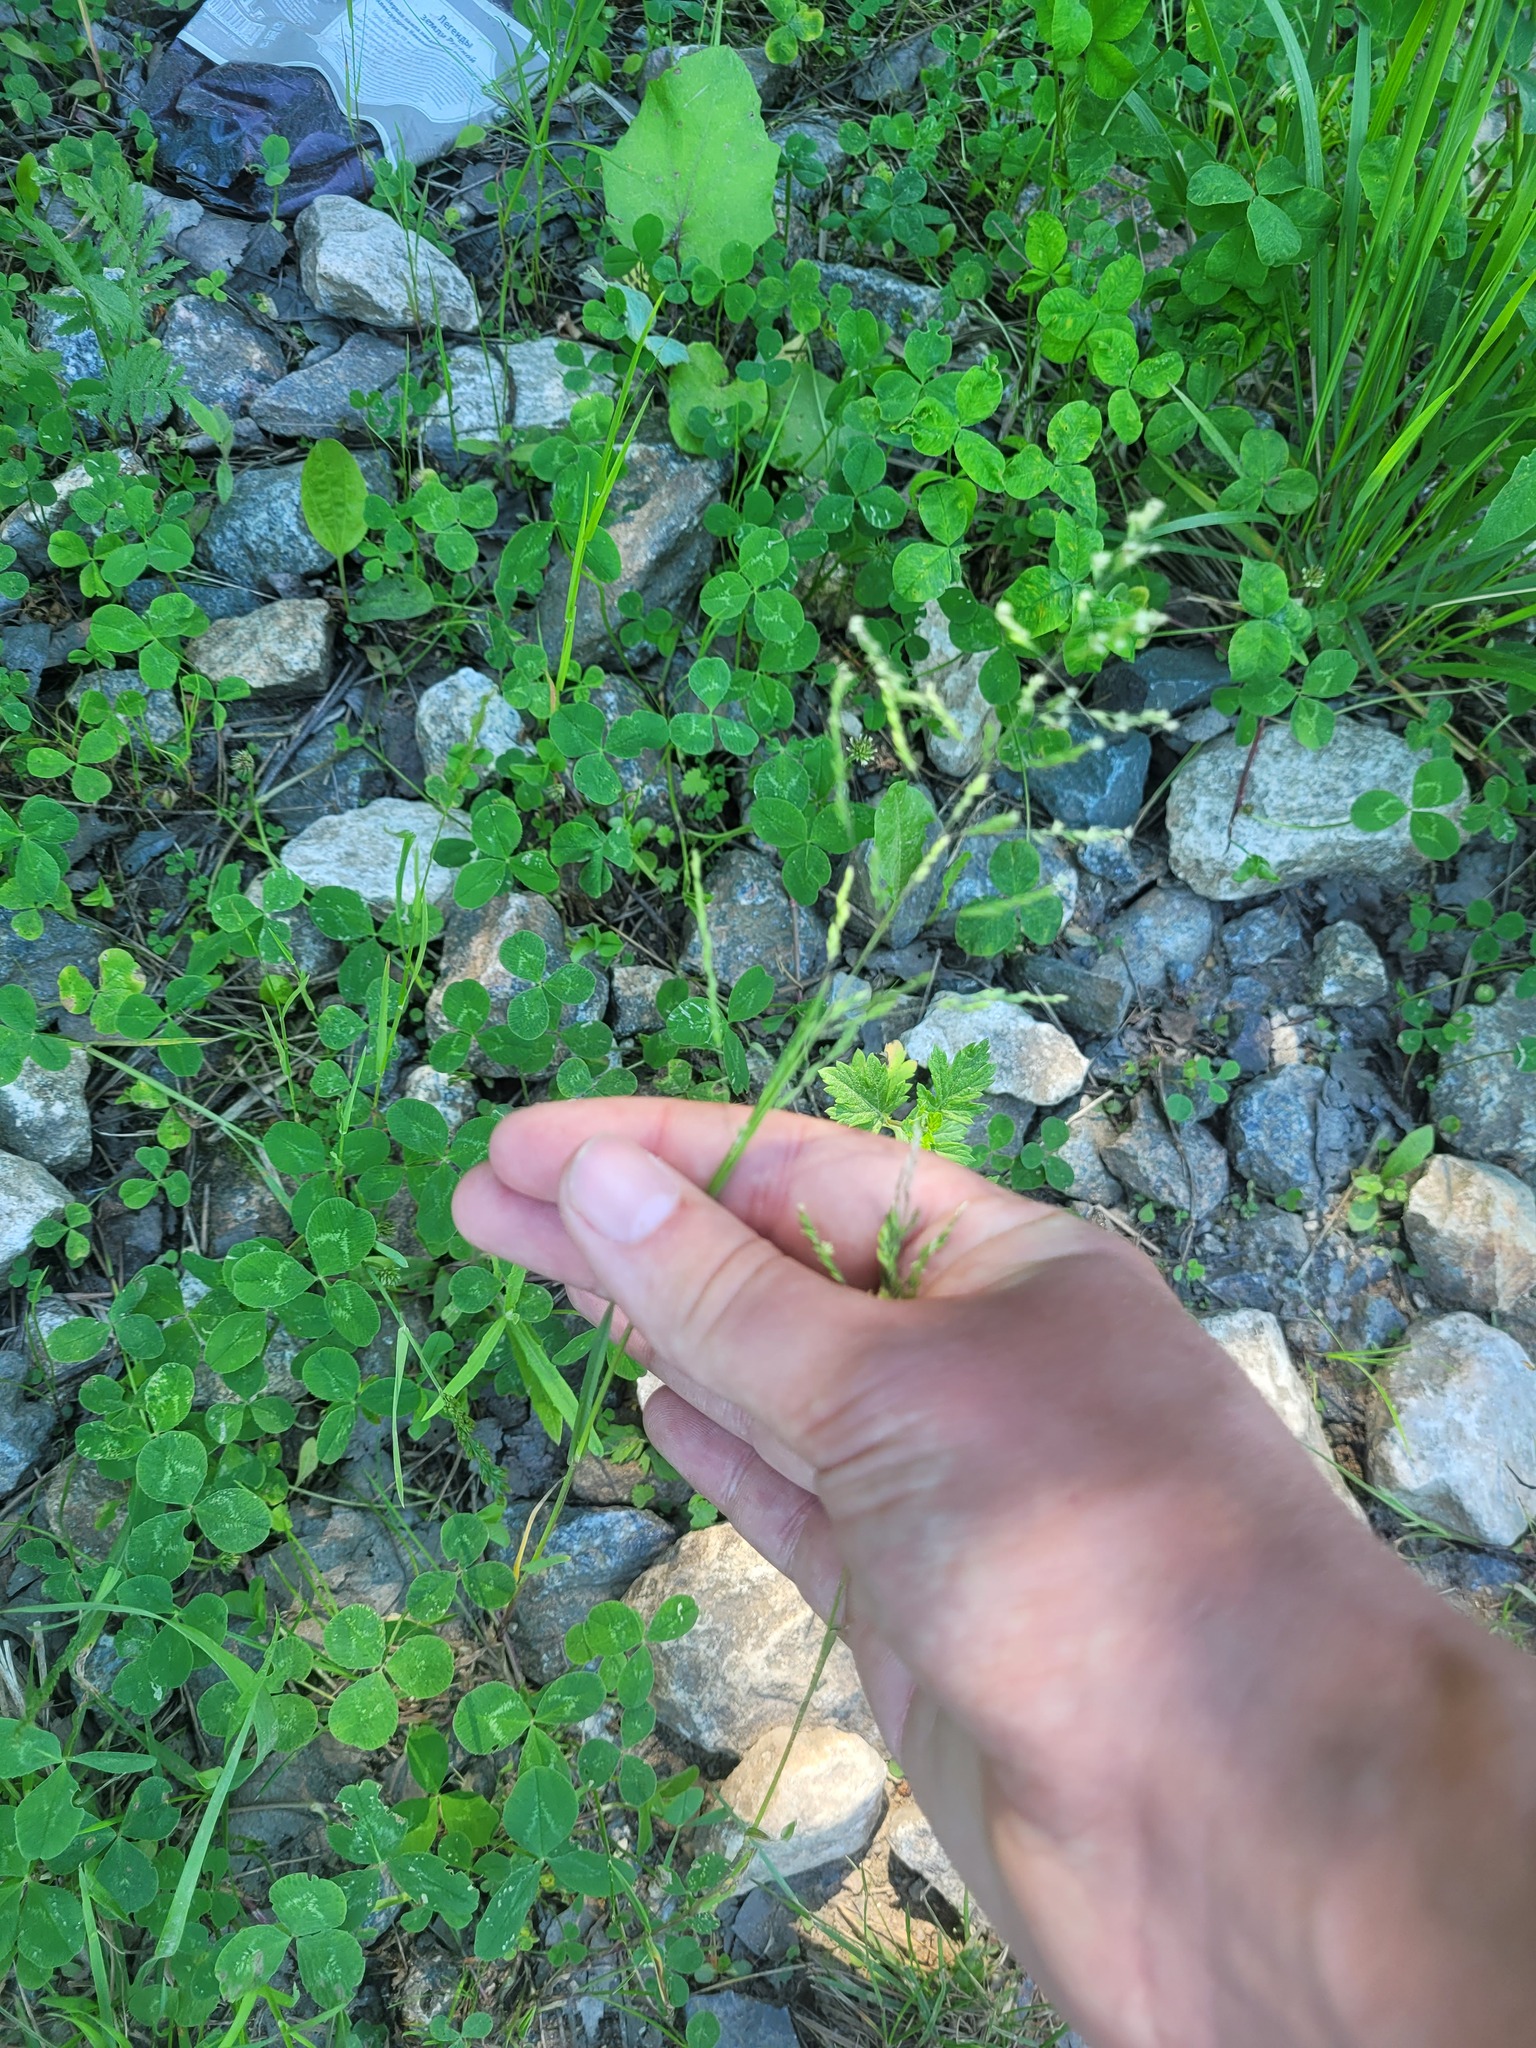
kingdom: Plantae
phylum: Tracheophyta
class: Liliopsida
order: Poales
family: Poaceae
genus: Poa
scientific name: Poa pratensis
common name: Kentucky bluegrass
